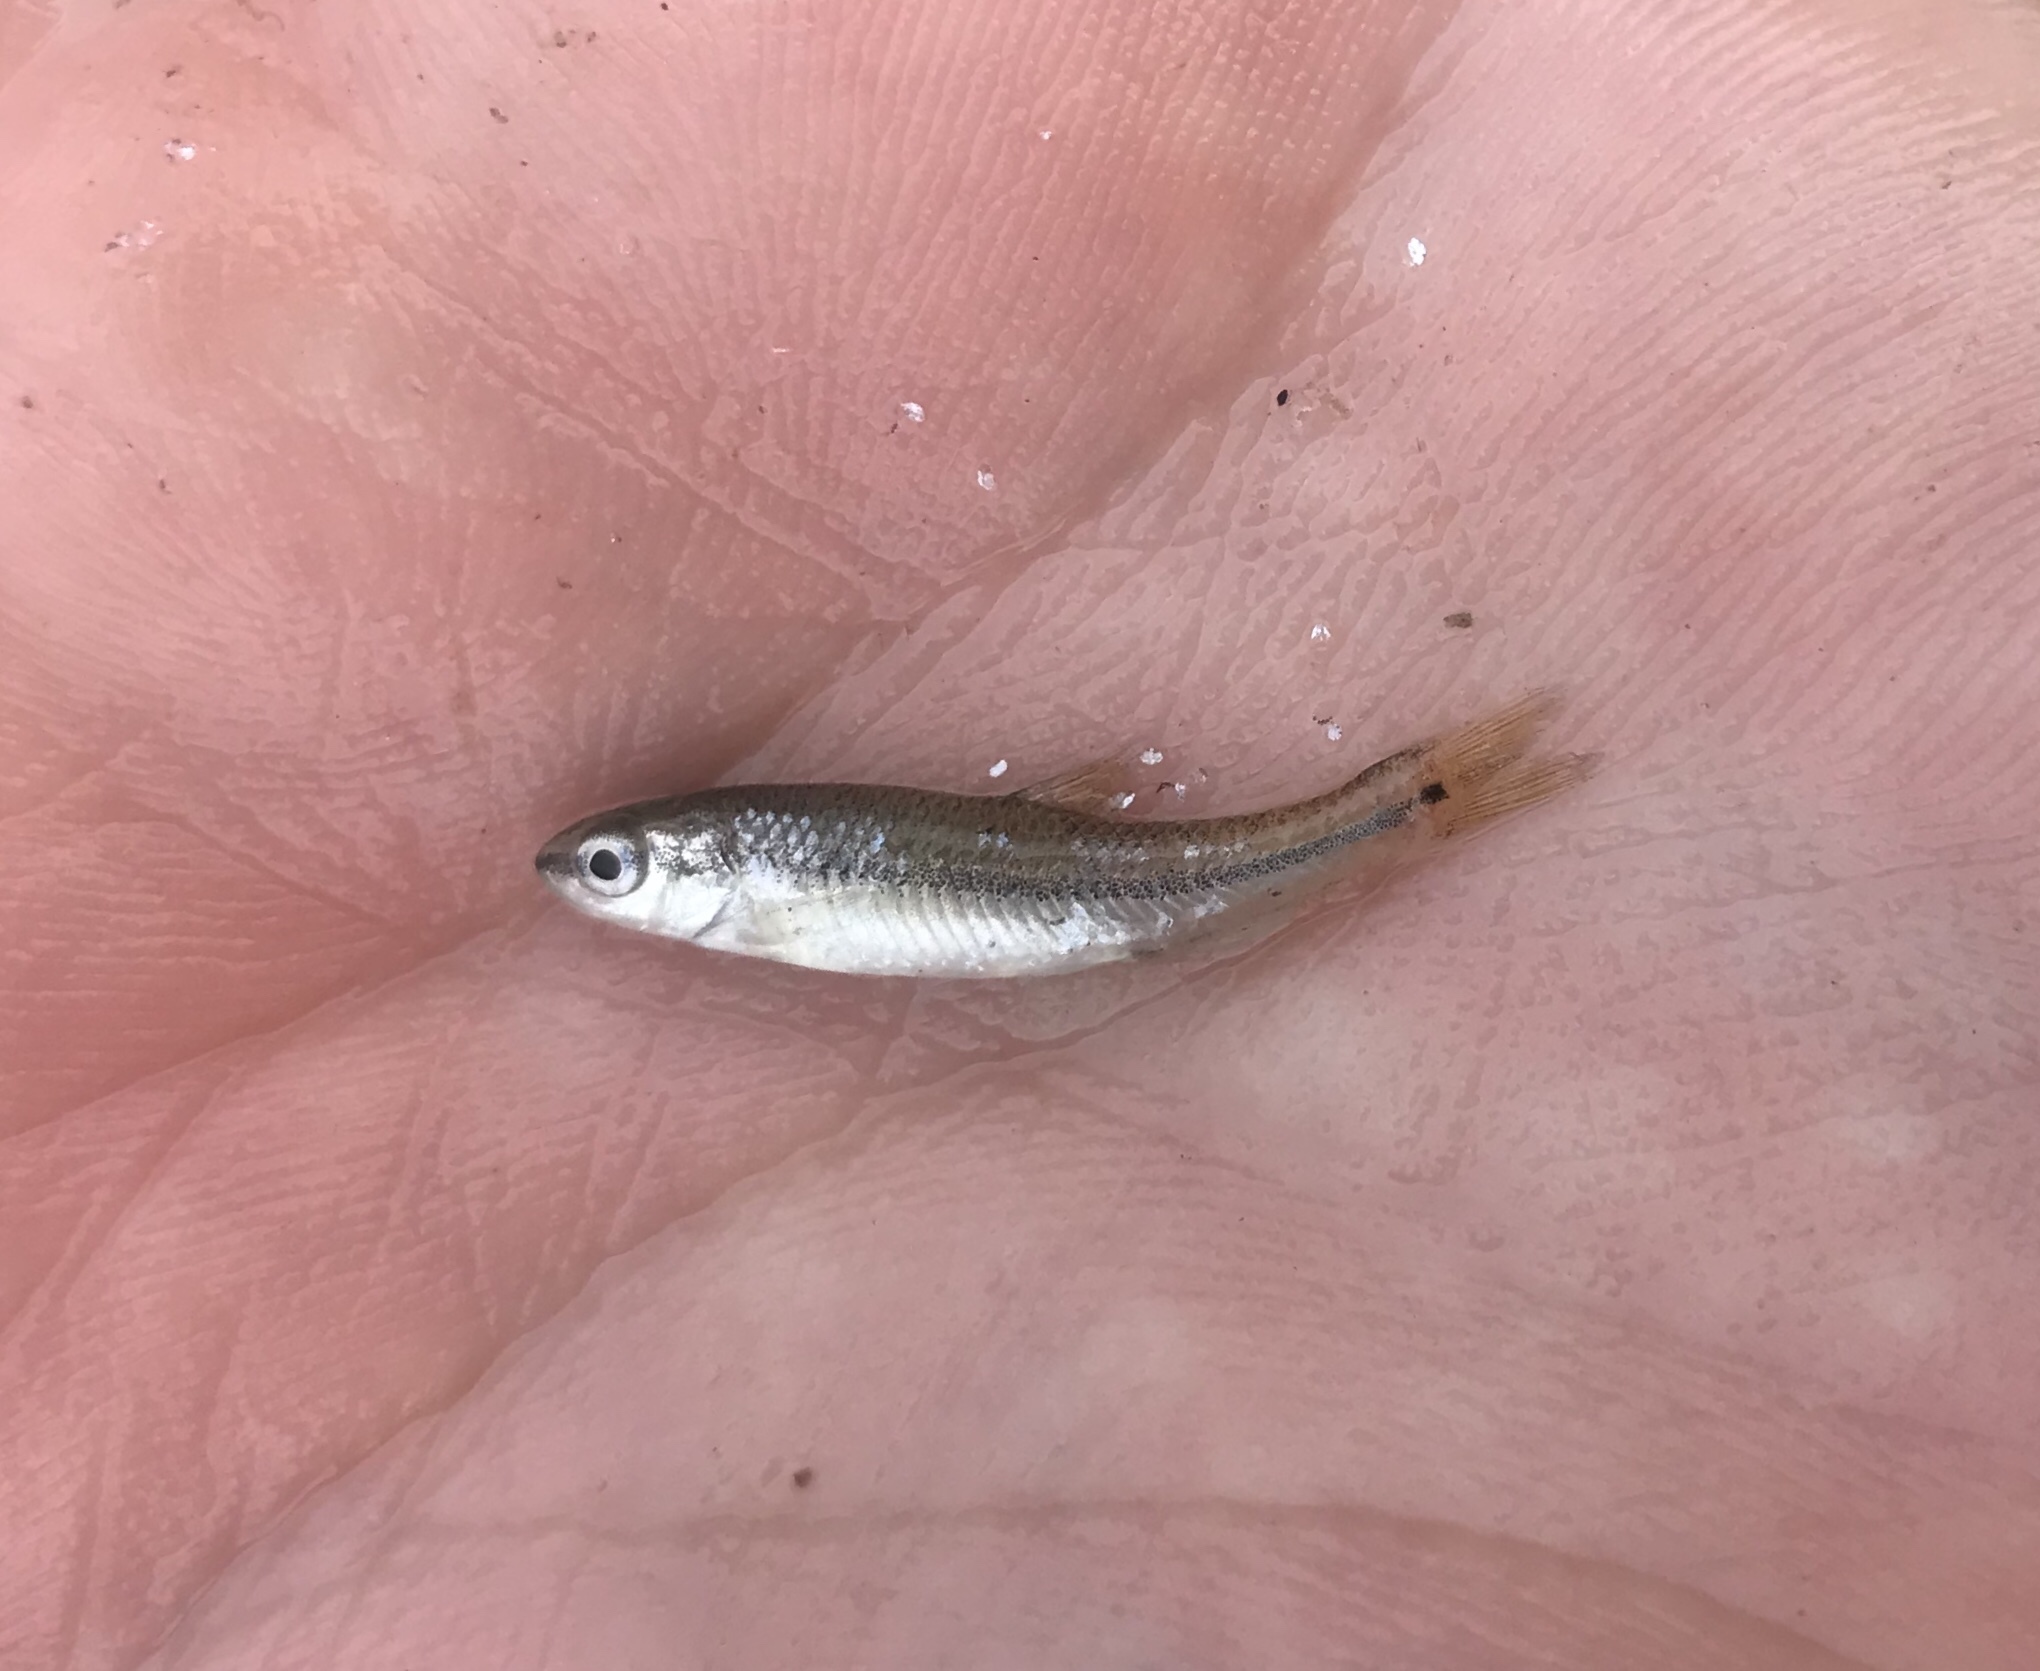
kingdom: Animalia
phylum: Chordata
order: Cypriniformes
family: Cyprinidae
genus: Dionda
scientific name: Dionda flavipinnis
